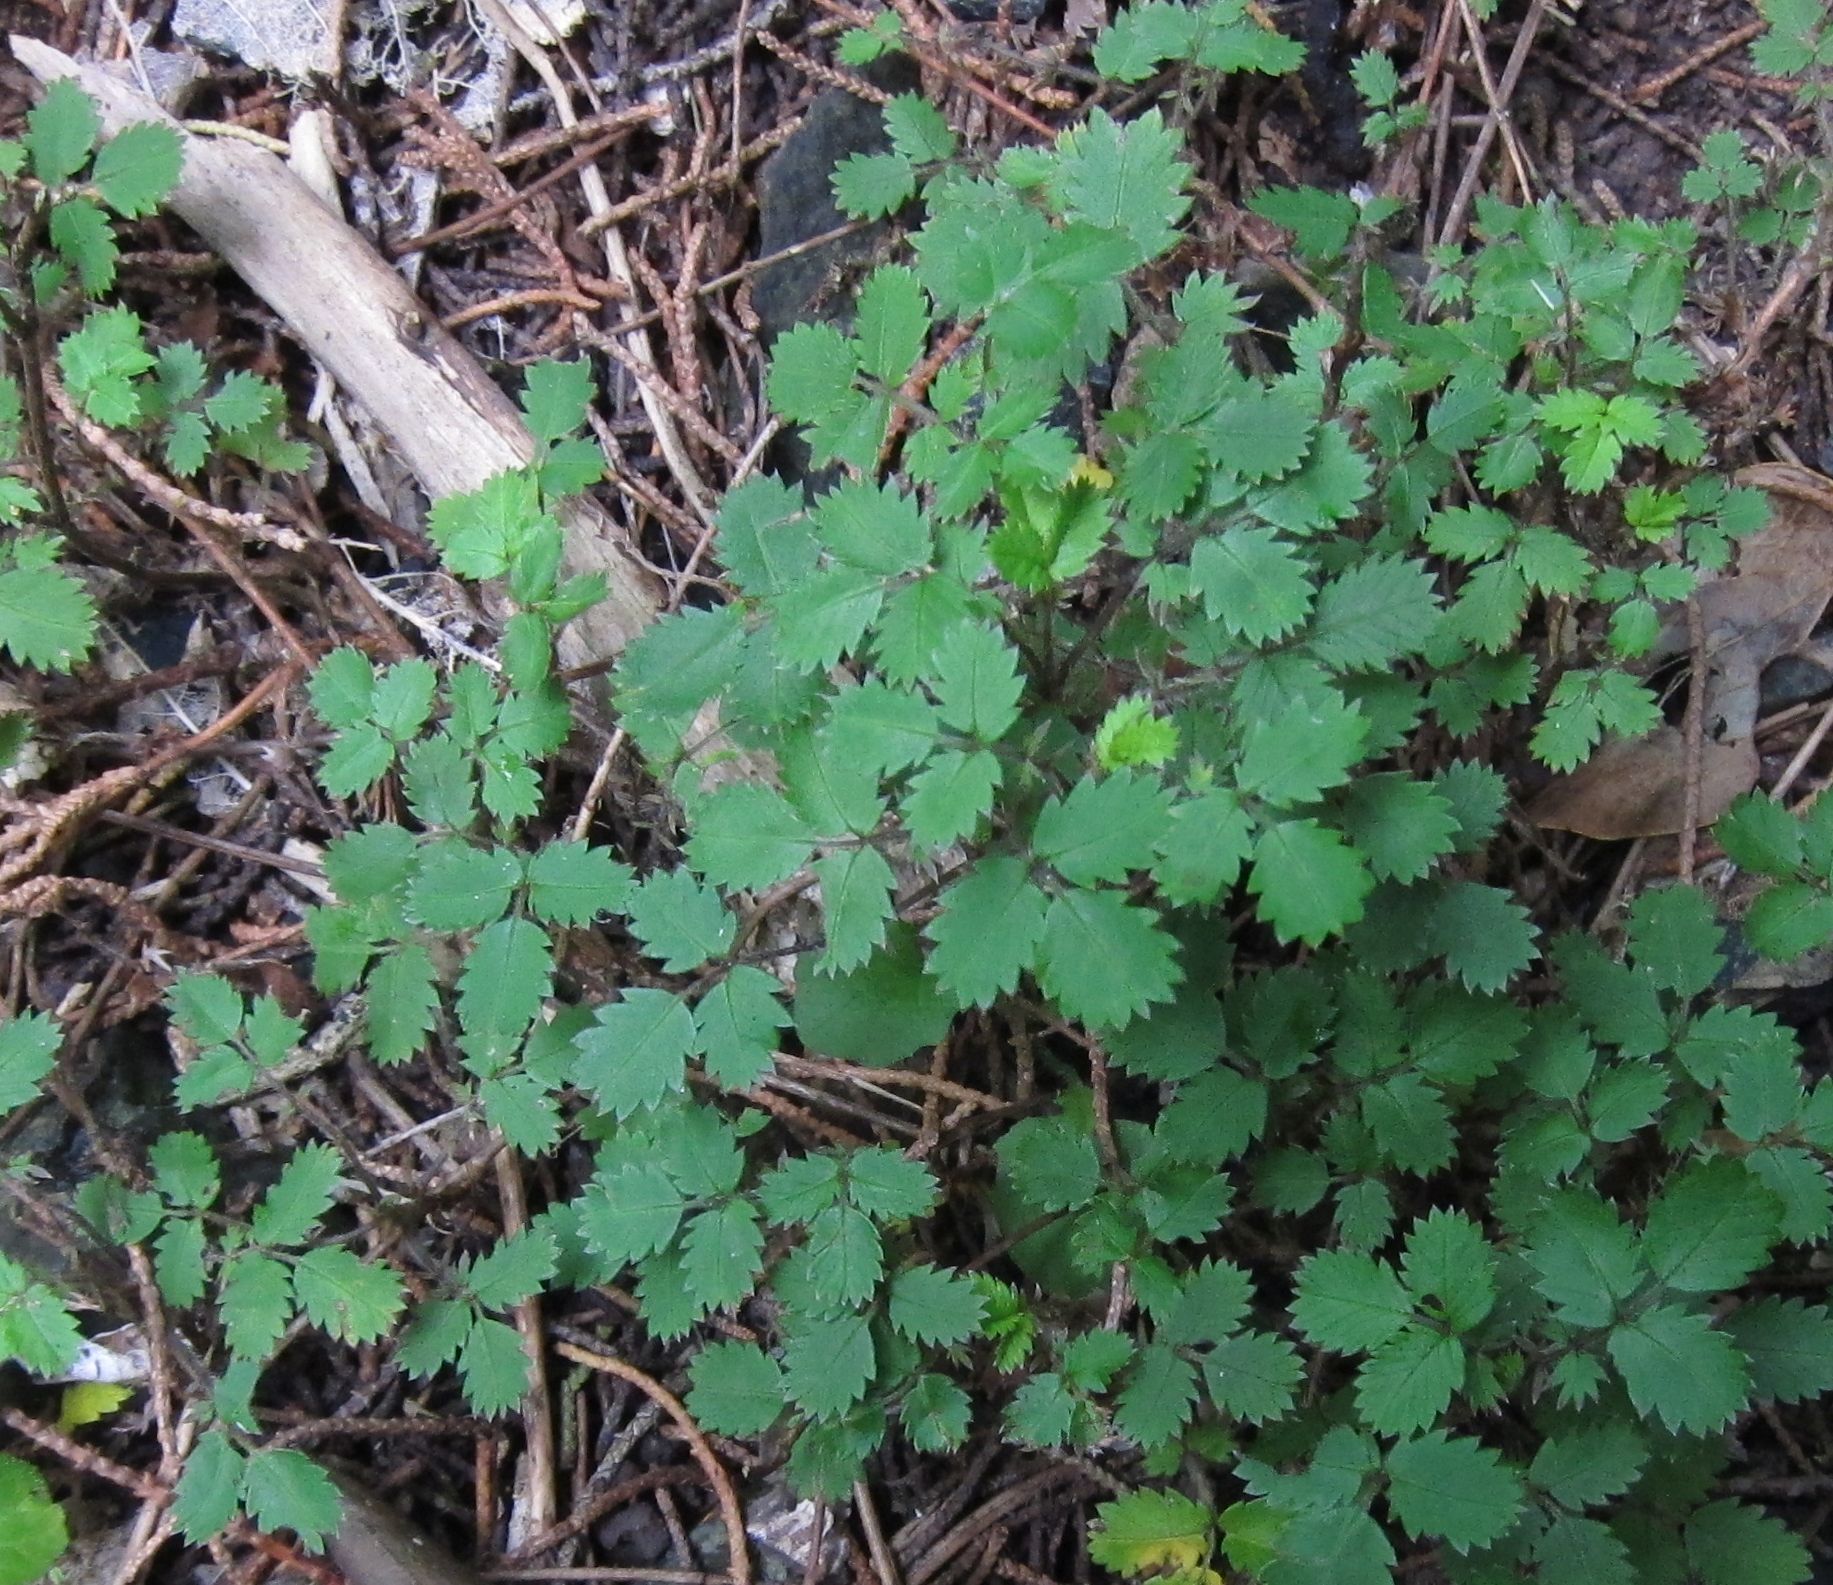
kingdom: Plantae
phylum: Tracheophyta
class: Magnoliopsida
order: Rosales
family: Rosaceae
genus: Acaena
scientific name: Acaena juvenca
